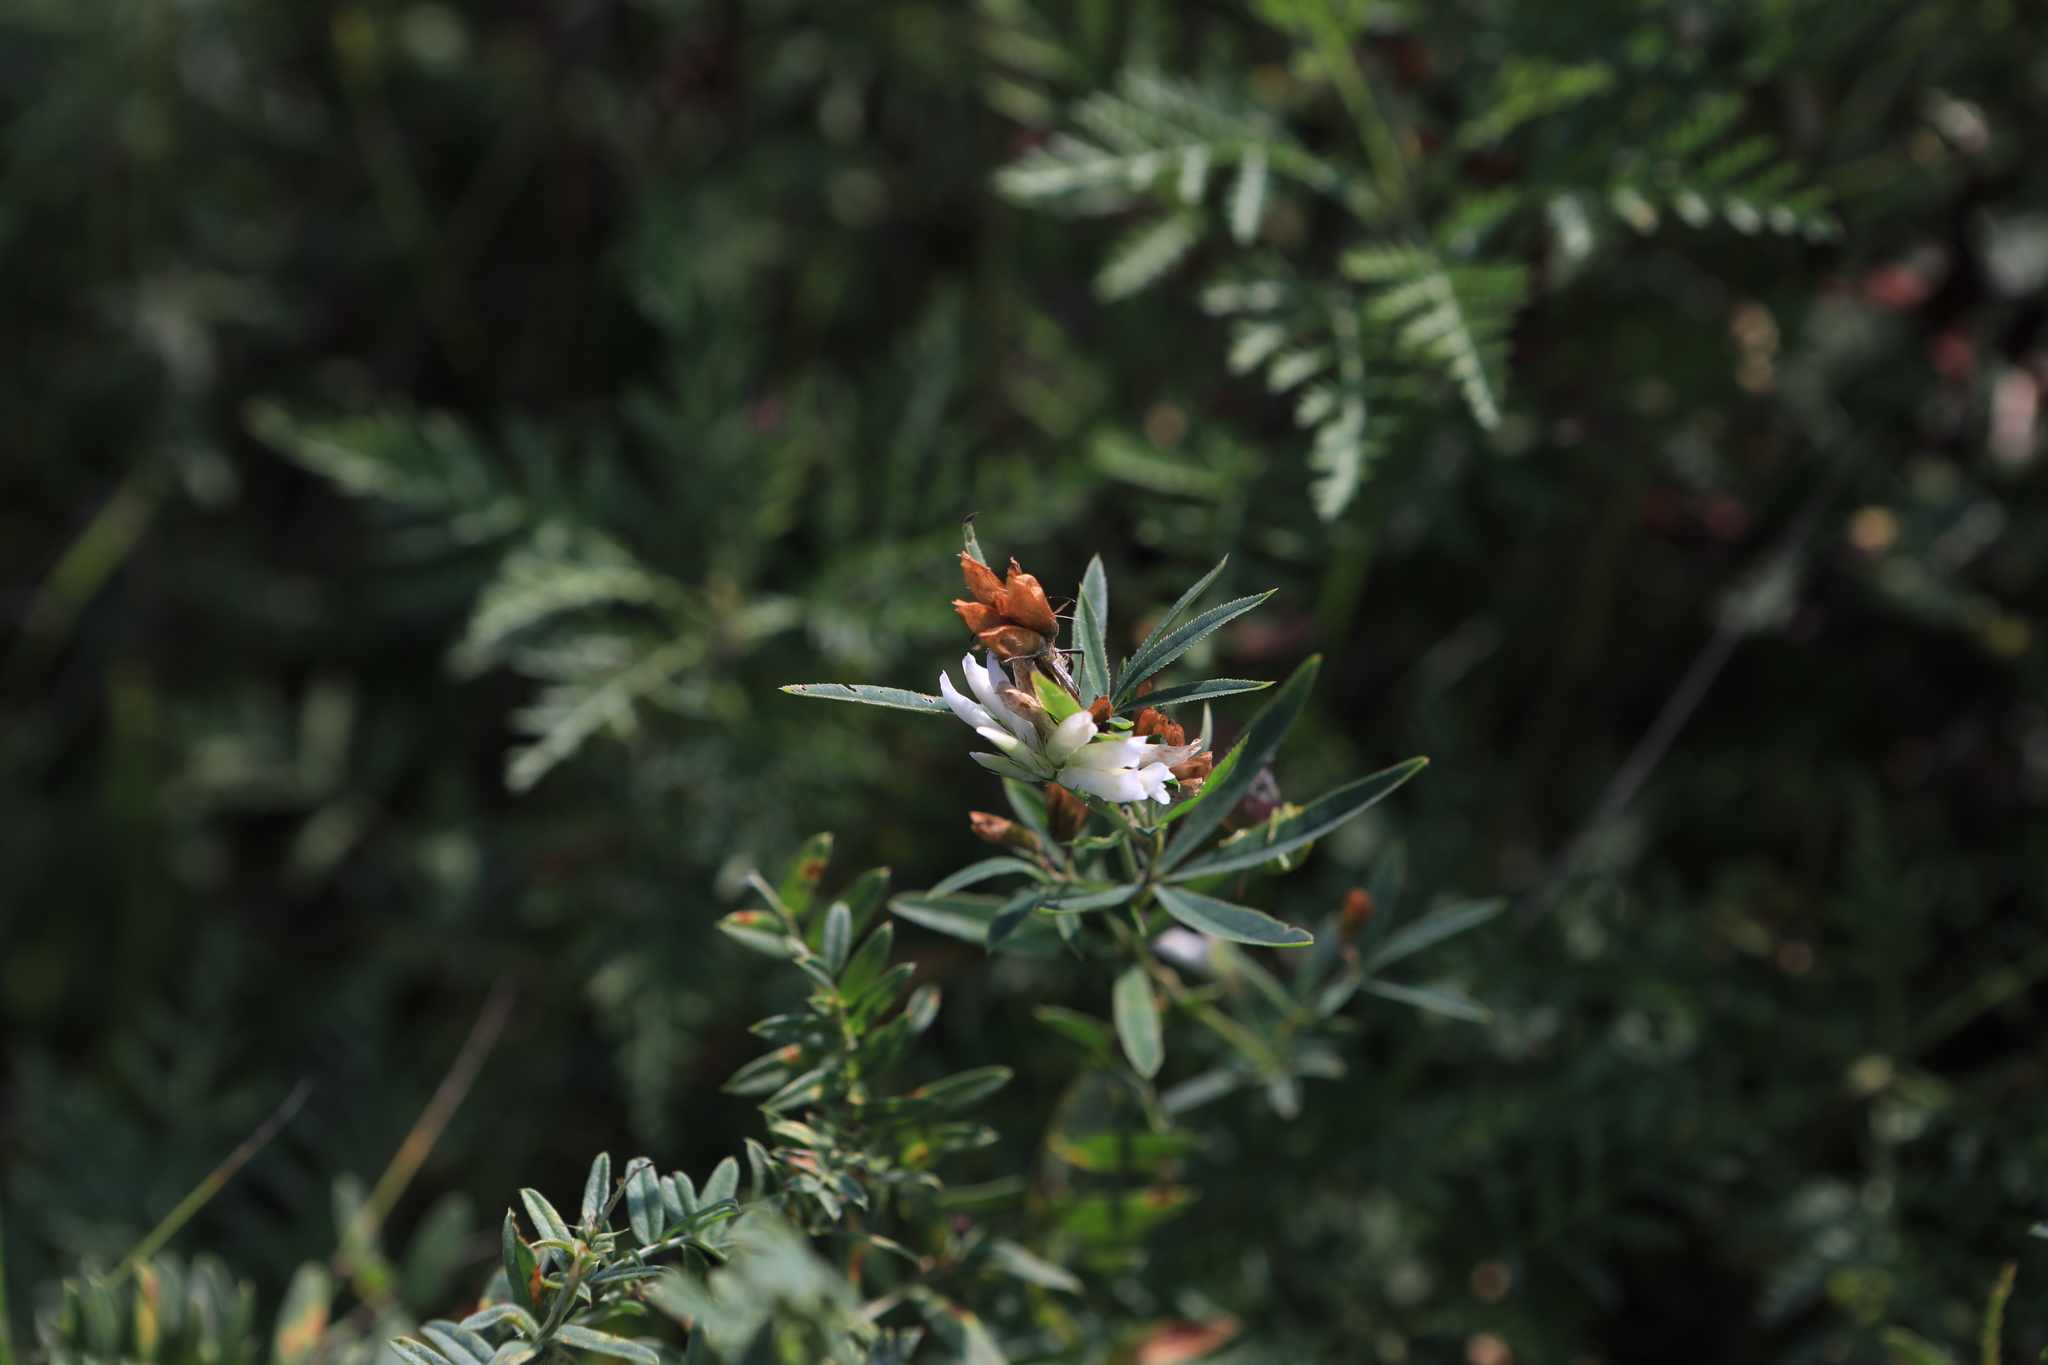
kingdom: Plantae
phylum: Tracheophyta
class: Magnoliopsida
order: Fabales
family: Fabaceae
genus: Trifolium
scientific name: Trifolium lupinaster
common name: Lupine clover
